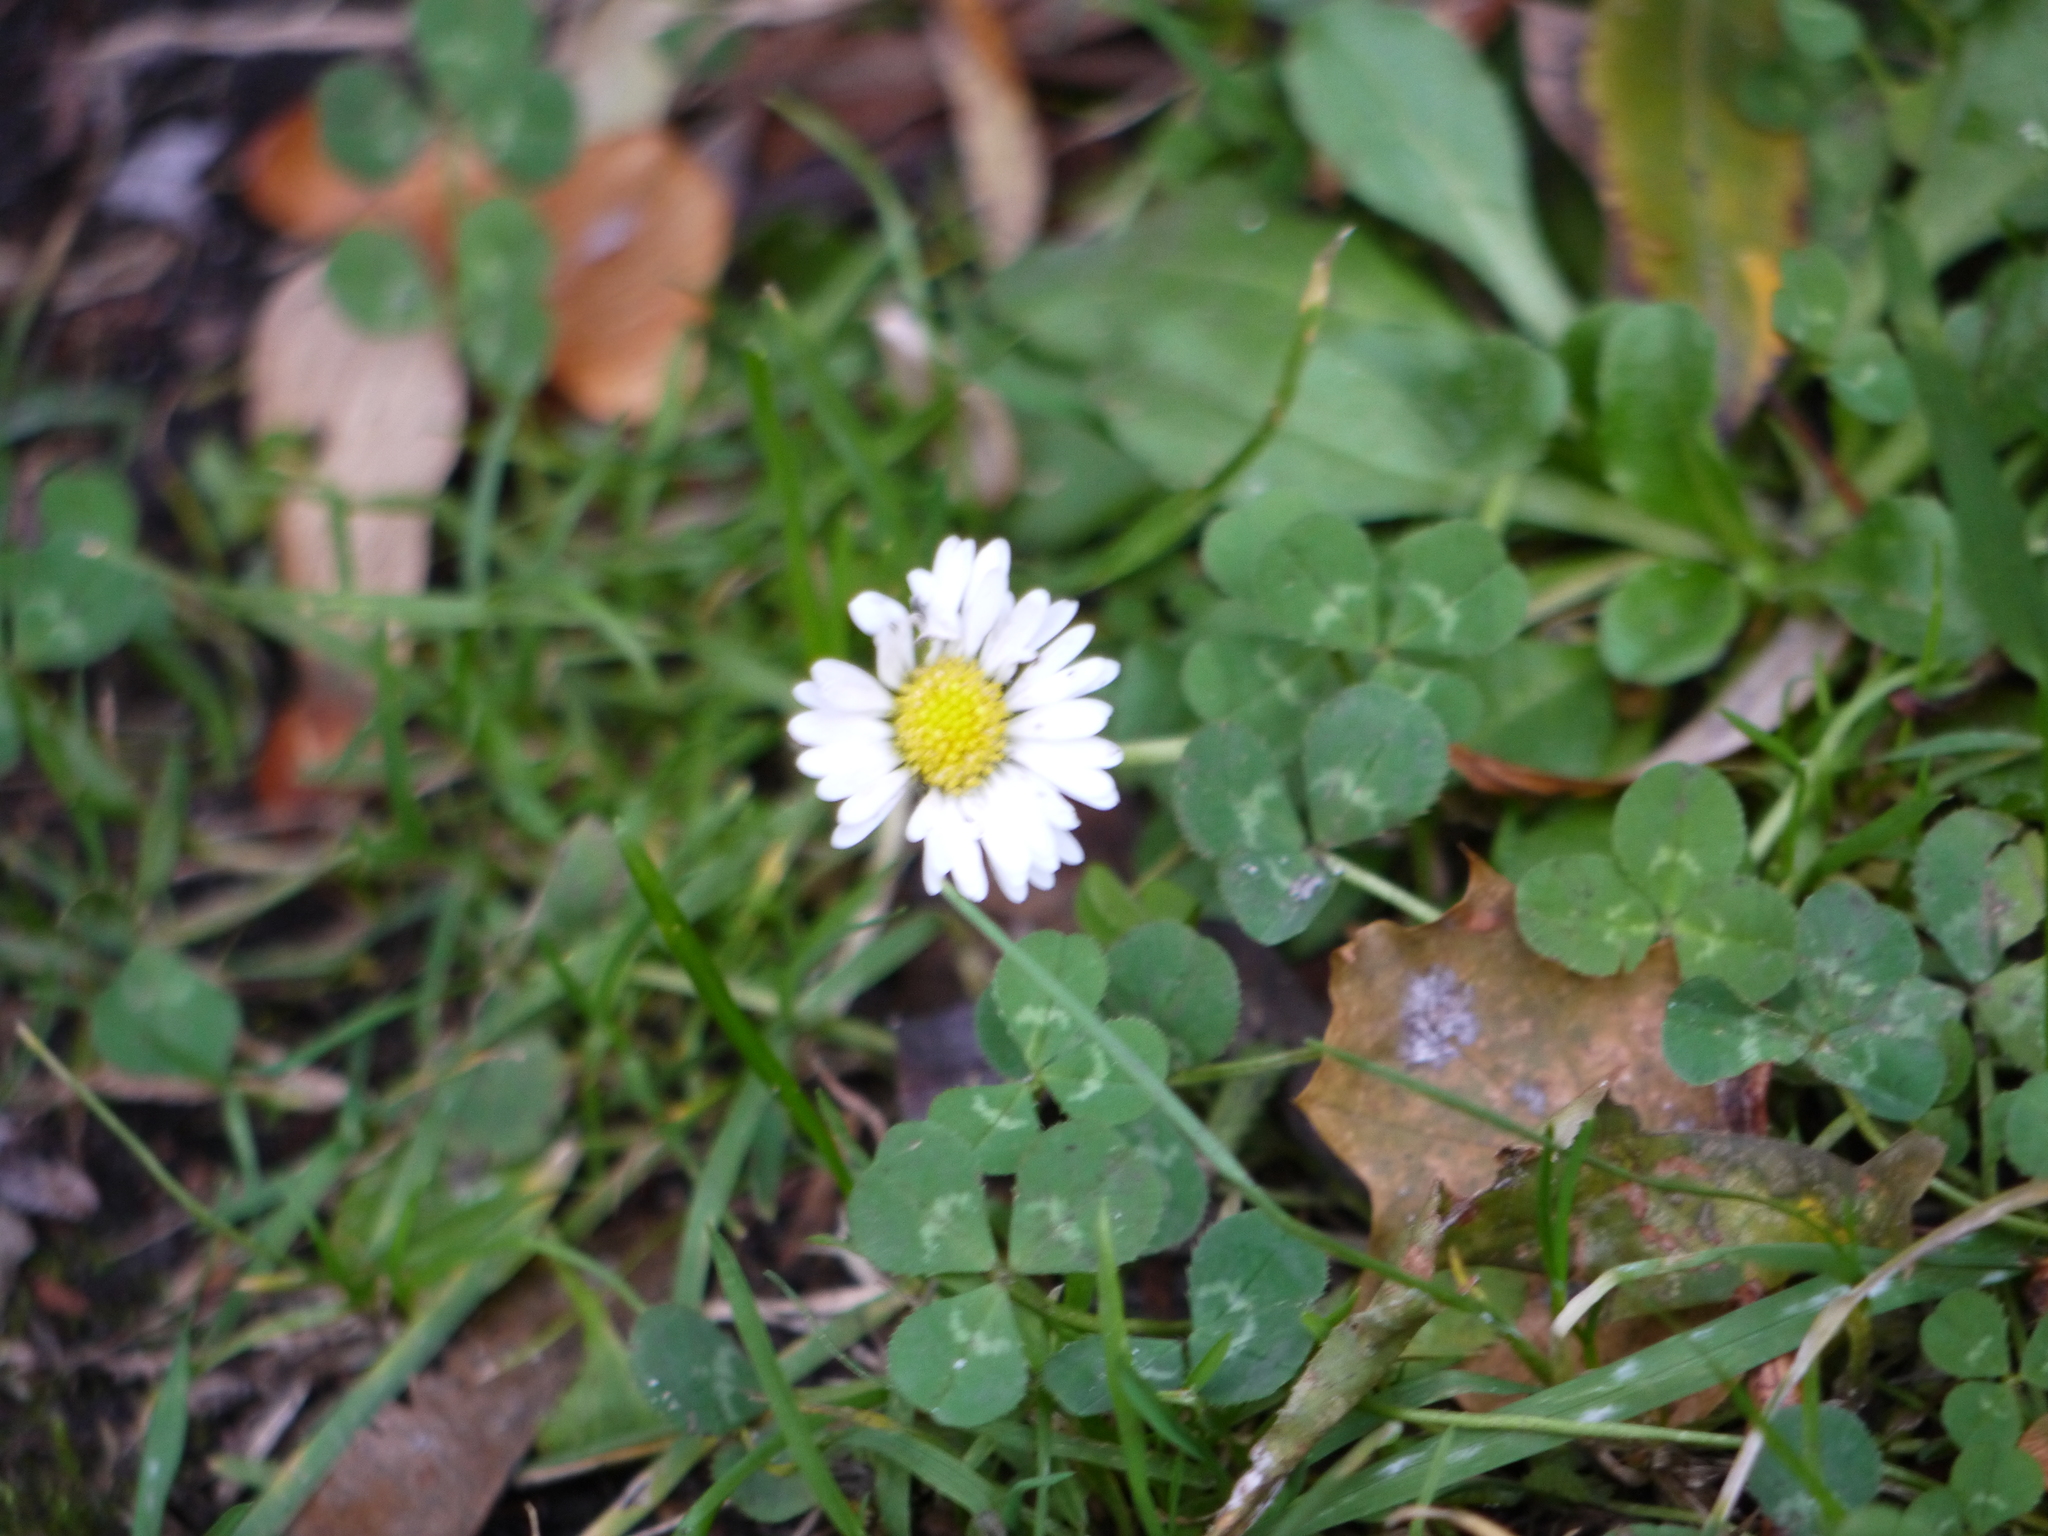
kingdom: Plantae
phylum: Tracheophyta
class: Magnoliopsida
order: Asterales
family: Asteraceae
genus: Bellis
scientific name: Bellis perennis
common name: Lawndaisy
